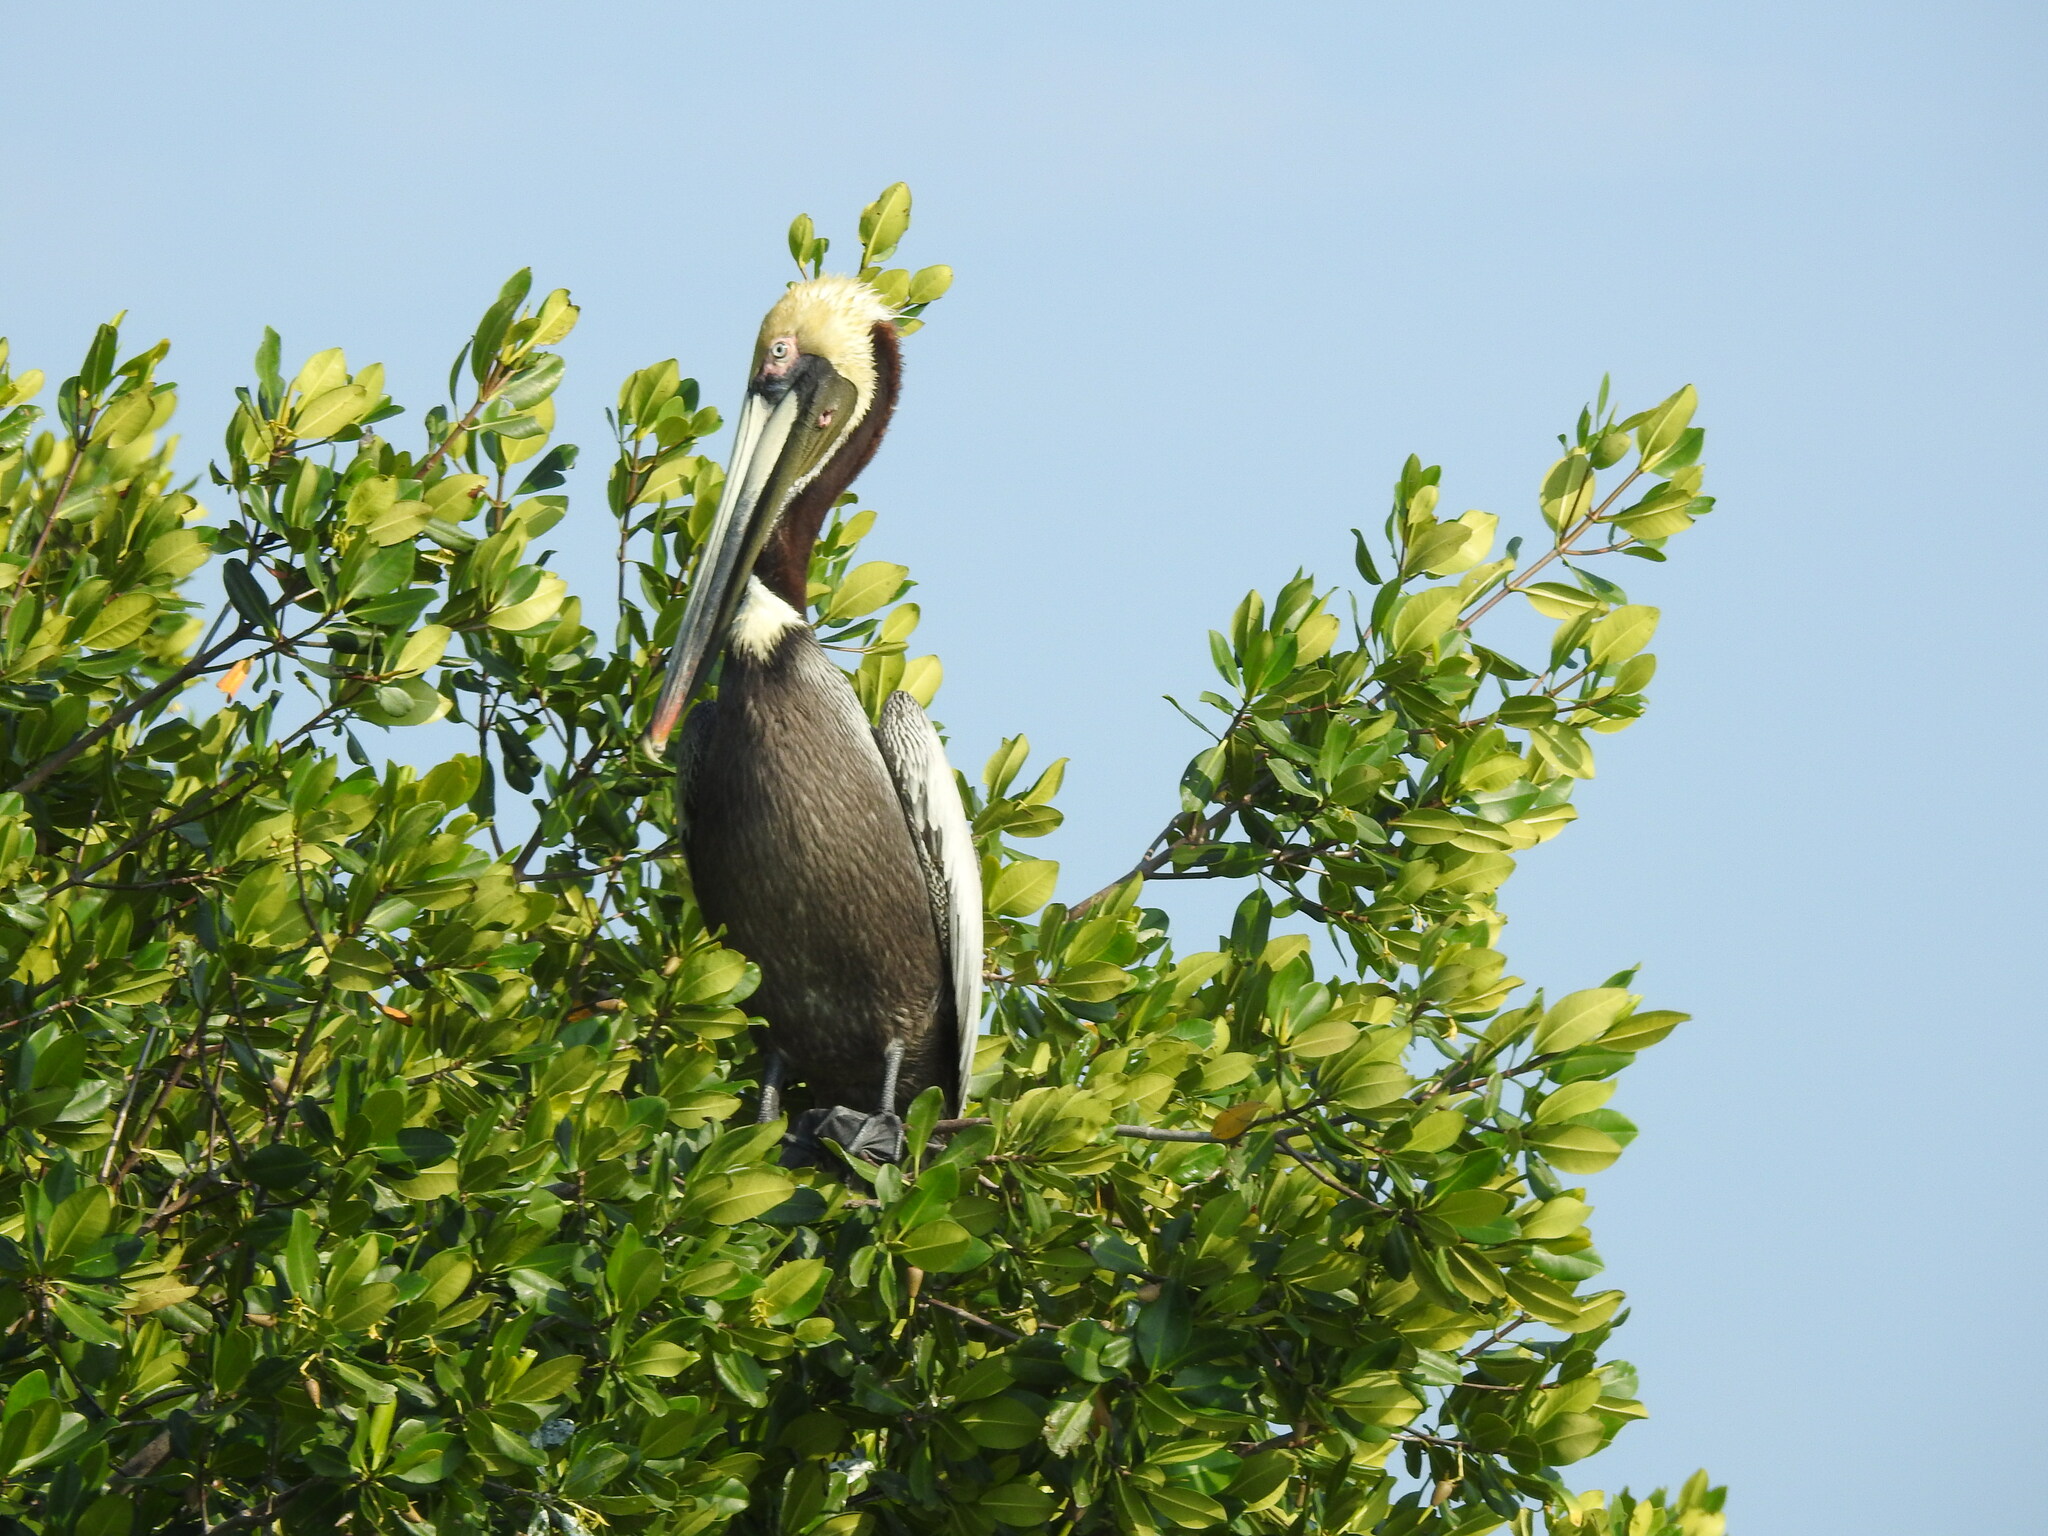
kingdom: Animalia
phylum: Chordata
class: Aves
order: Pelecaniformes
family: Pelecanidae
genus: Pelecanus
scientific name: Pelecanus occidentalis
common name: Brown pelican
